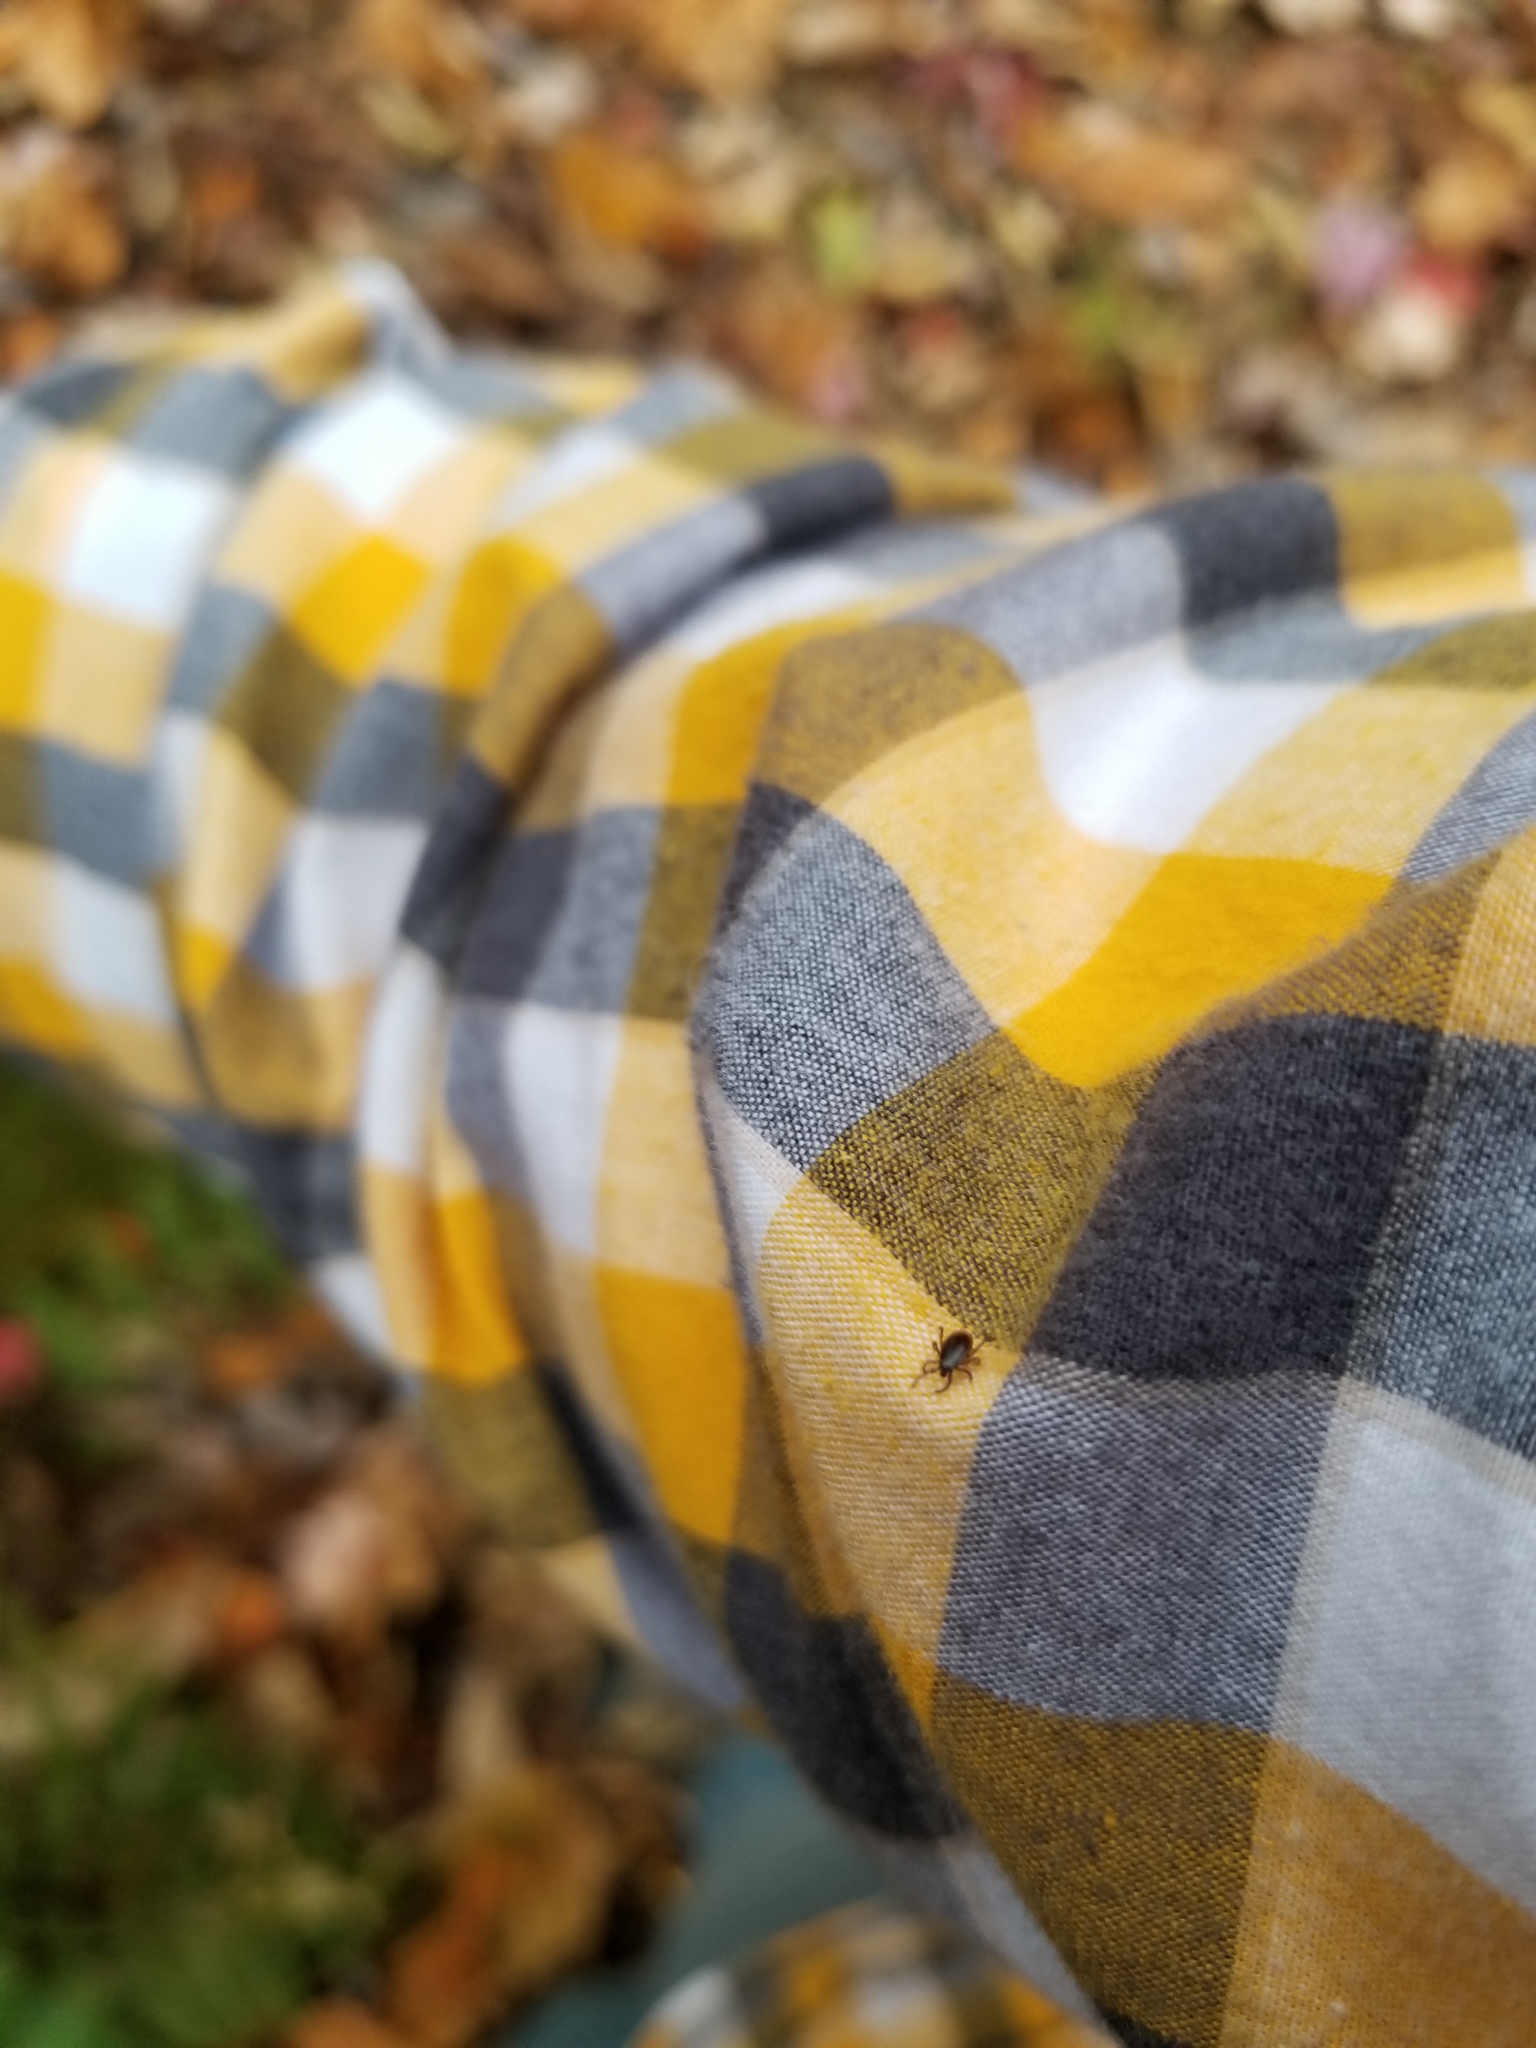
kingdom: Animalia
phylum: Arthropoda
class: Arachnida
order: Ixodida
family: Ixodidae
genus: Ixodes
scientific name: Ixodes scapularis
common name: Black legged tick
